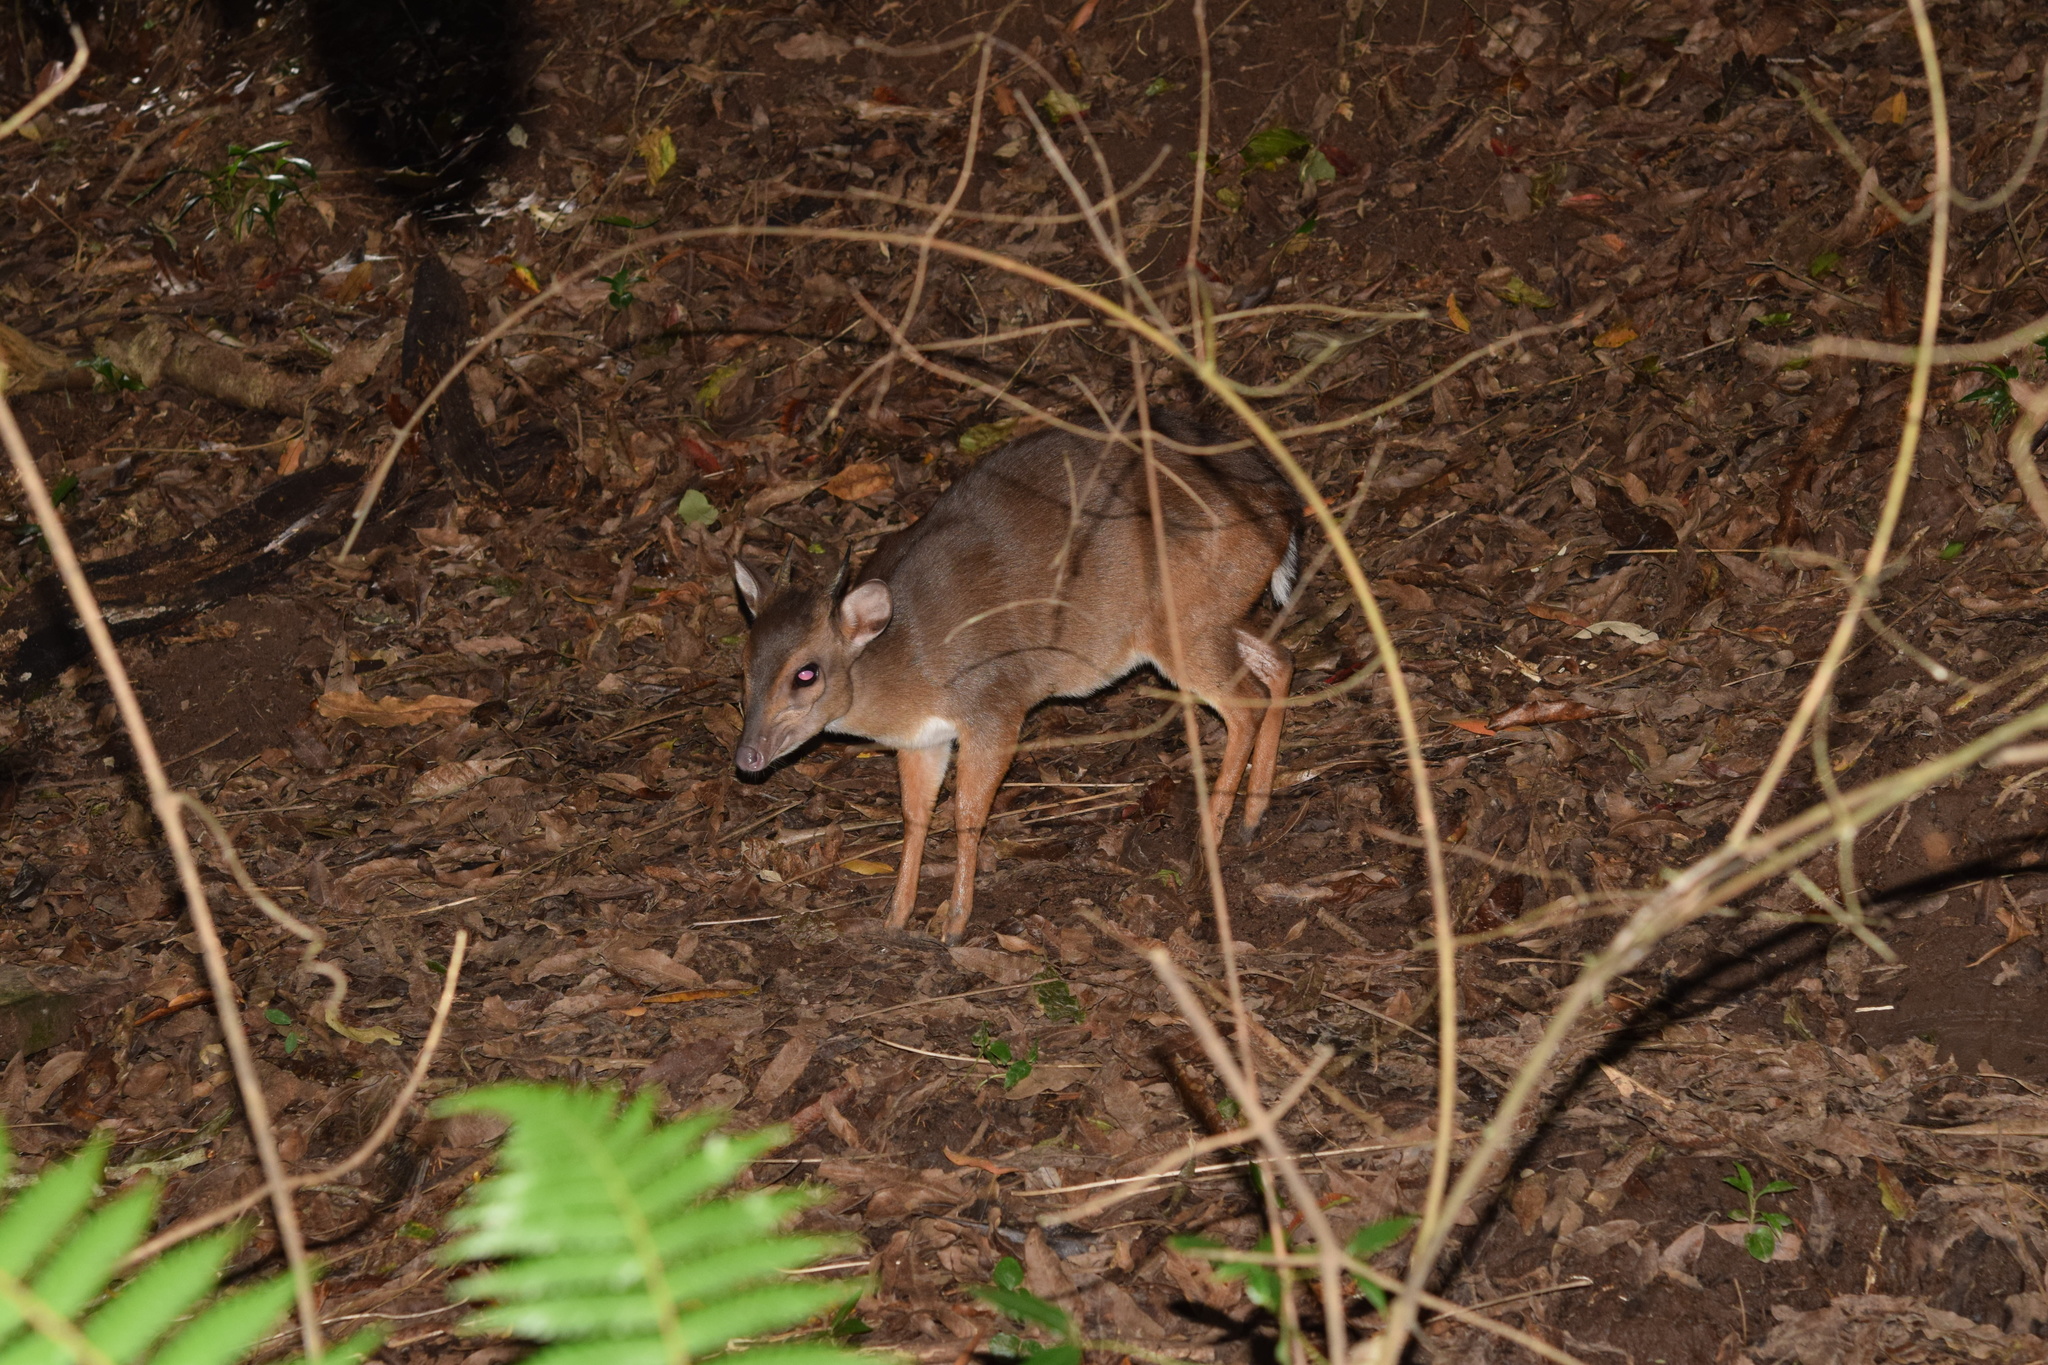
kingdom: Animalia
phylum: Chordata
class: Mammalia
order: Artiodactyla
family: Bovidae
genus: Philantomba
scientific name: Philantomba monticola
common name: Blue duiker
